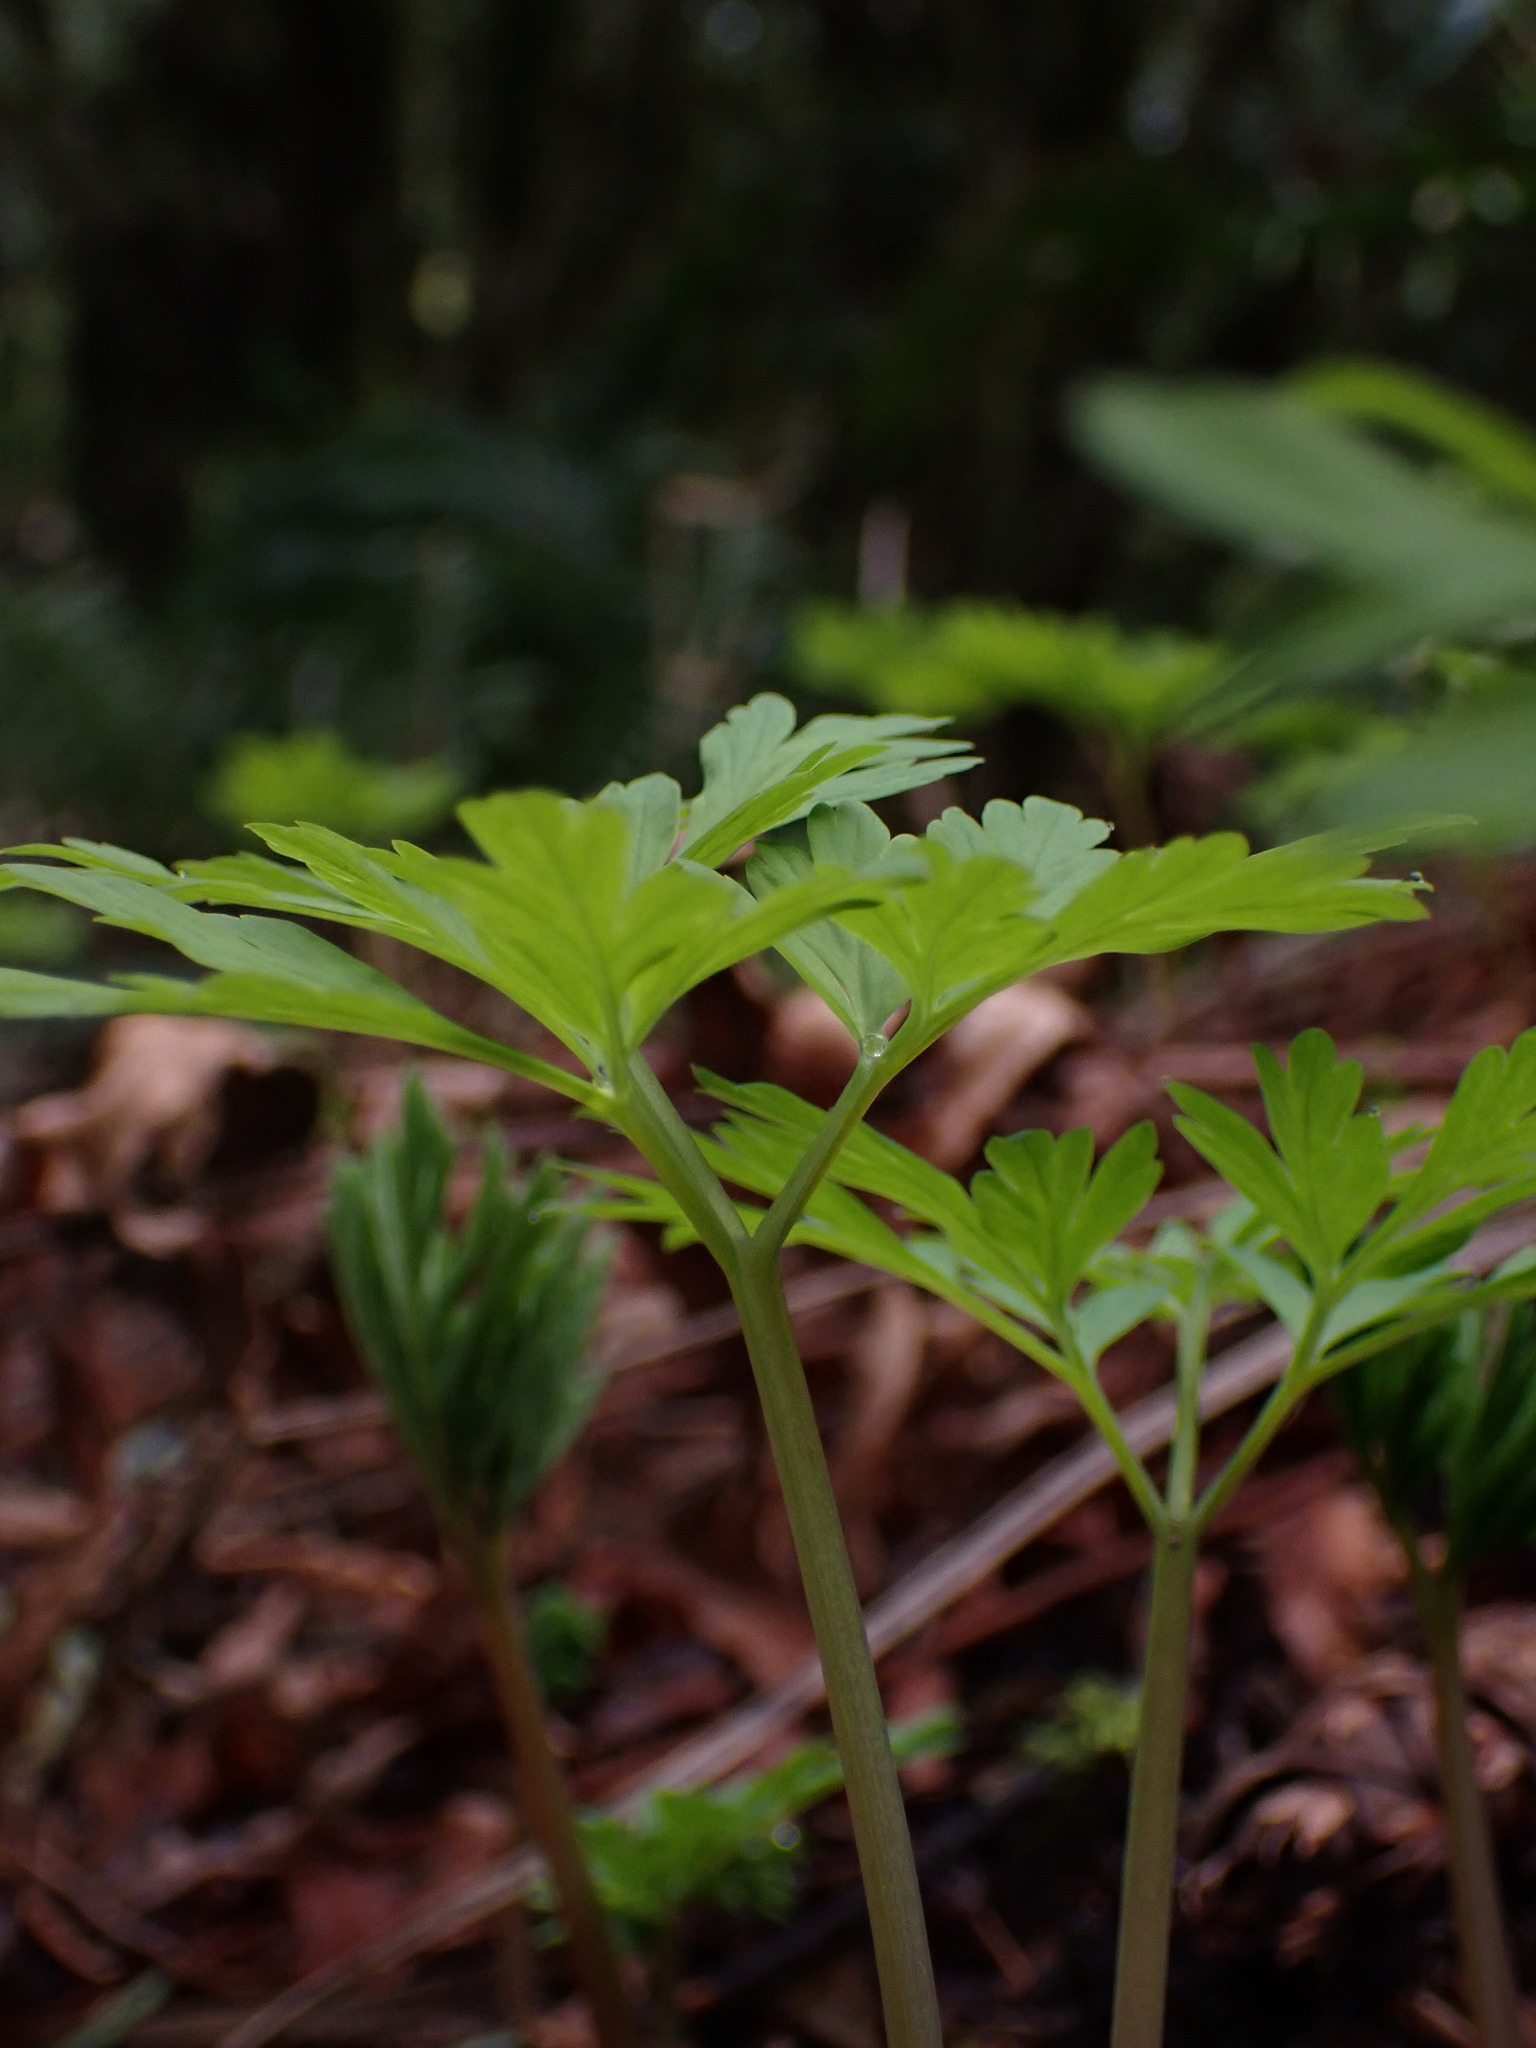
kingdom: Plantae
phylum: Tracheophyta
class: Magnoliopsida
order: Ranunculales
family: Papaveraceae
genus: Dicentra
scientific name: Dicentra formosa
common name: Bleeding-heart
